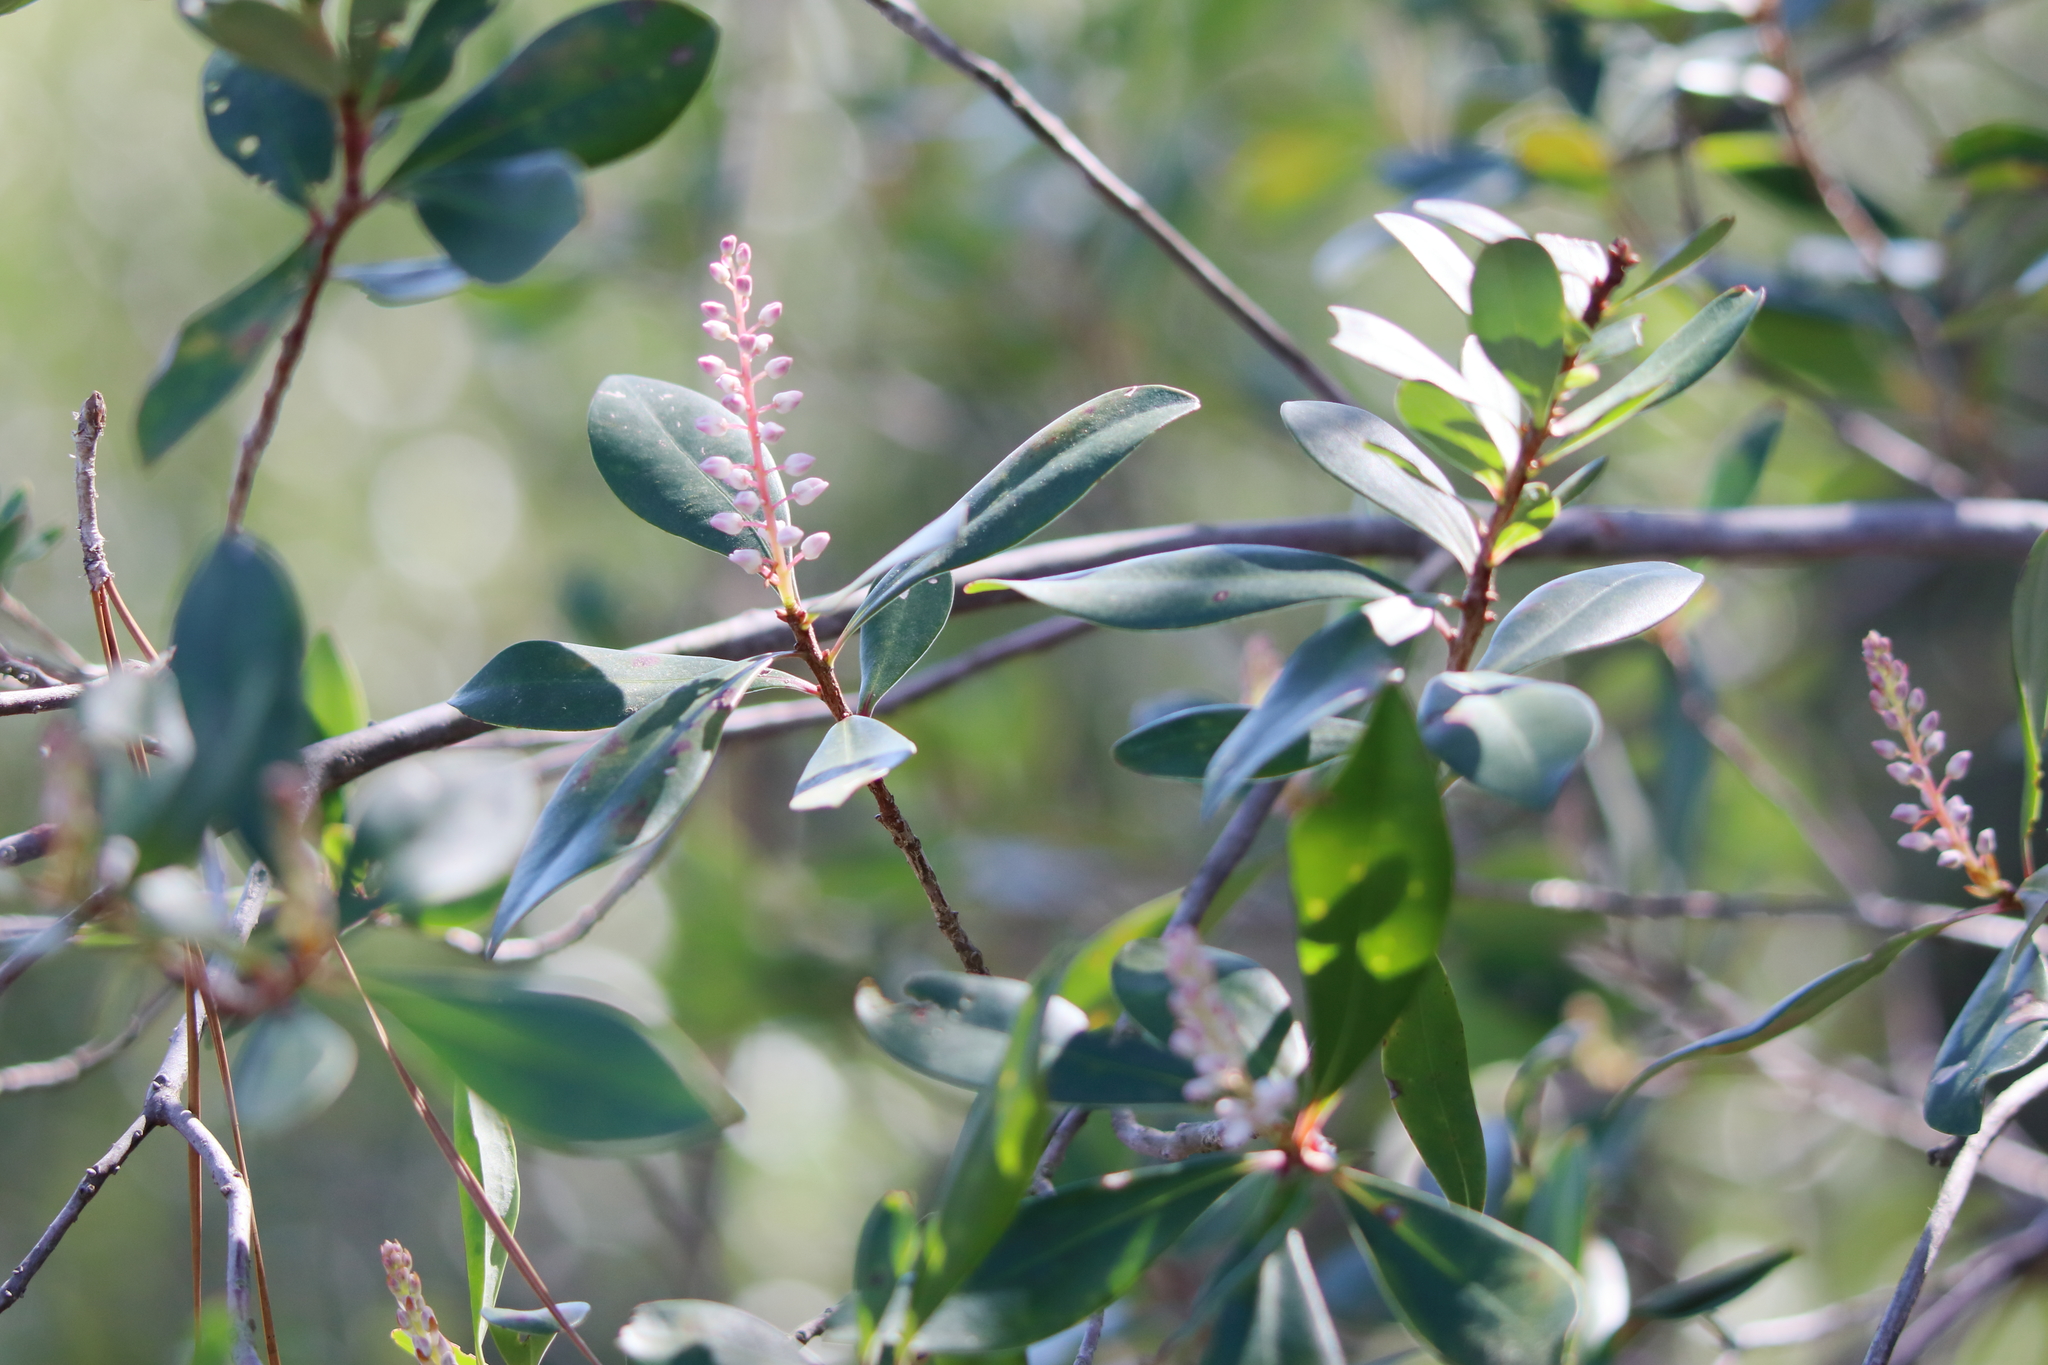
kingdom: Plantae
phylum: Tracheophyta
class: Magnoliopsida
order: Ericales
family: Cyrillaceae
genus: Cliftonia
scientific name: Cliftonia monophylla
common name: Titi
